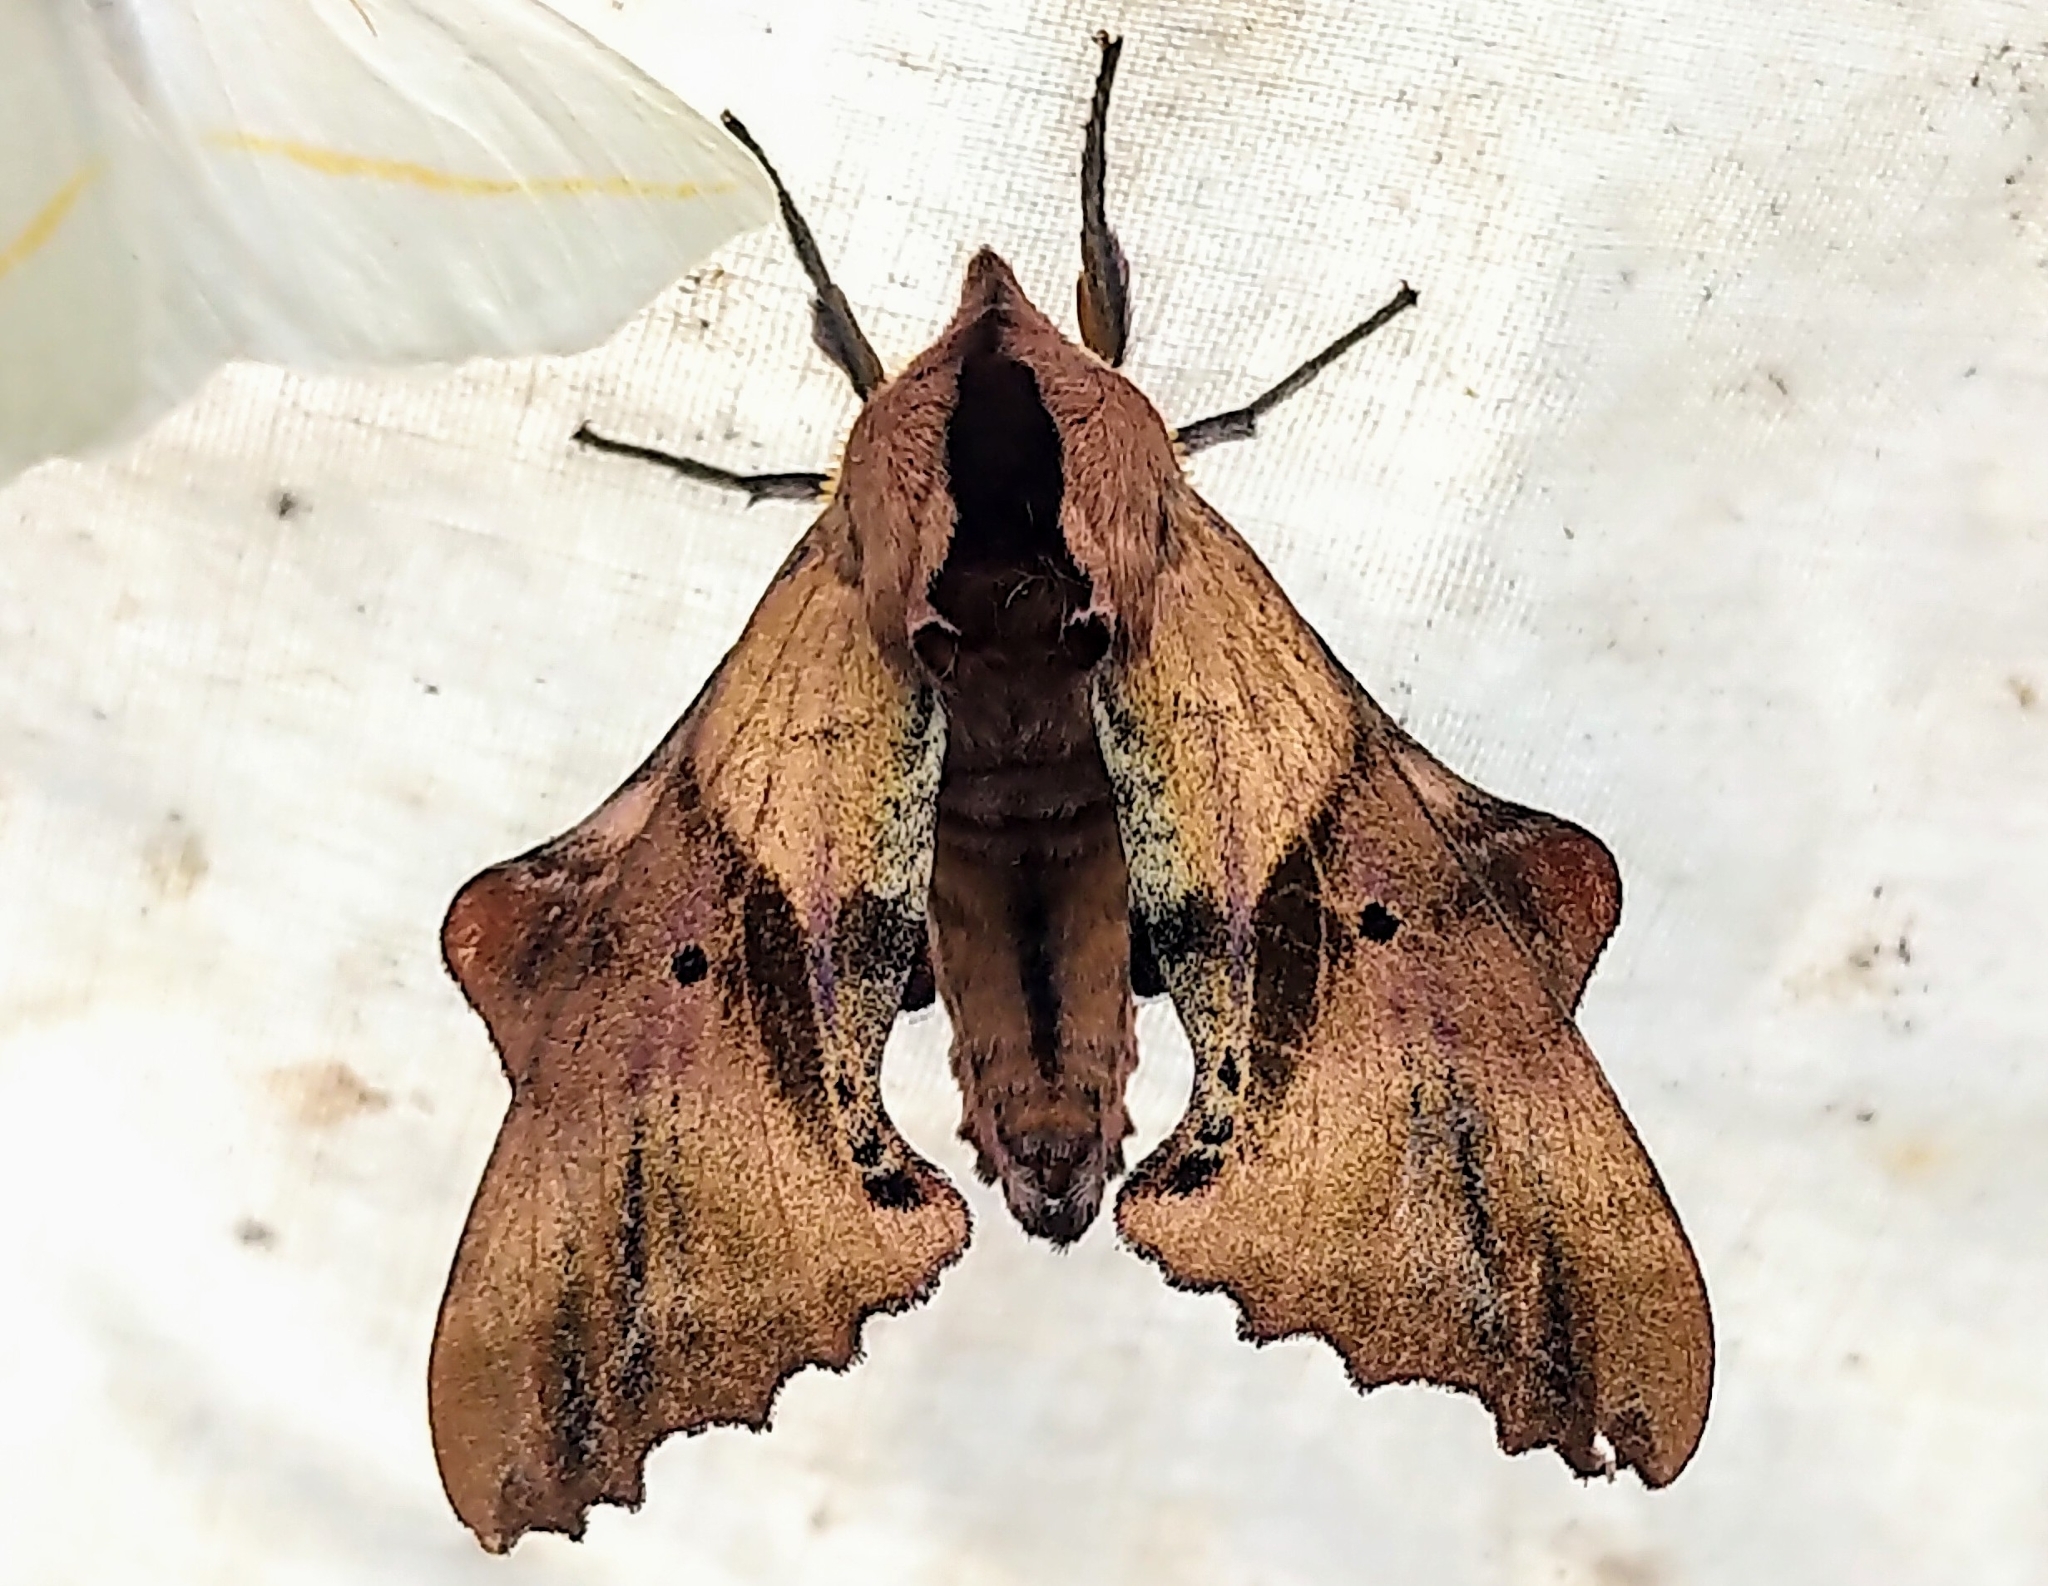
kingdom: Animalia
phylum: Arthropoda
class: Insecta
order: Lepidoptera
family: Sphingidae
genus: Paonias
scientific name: Paonias excaecata
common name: Blind-eyed sphinx
